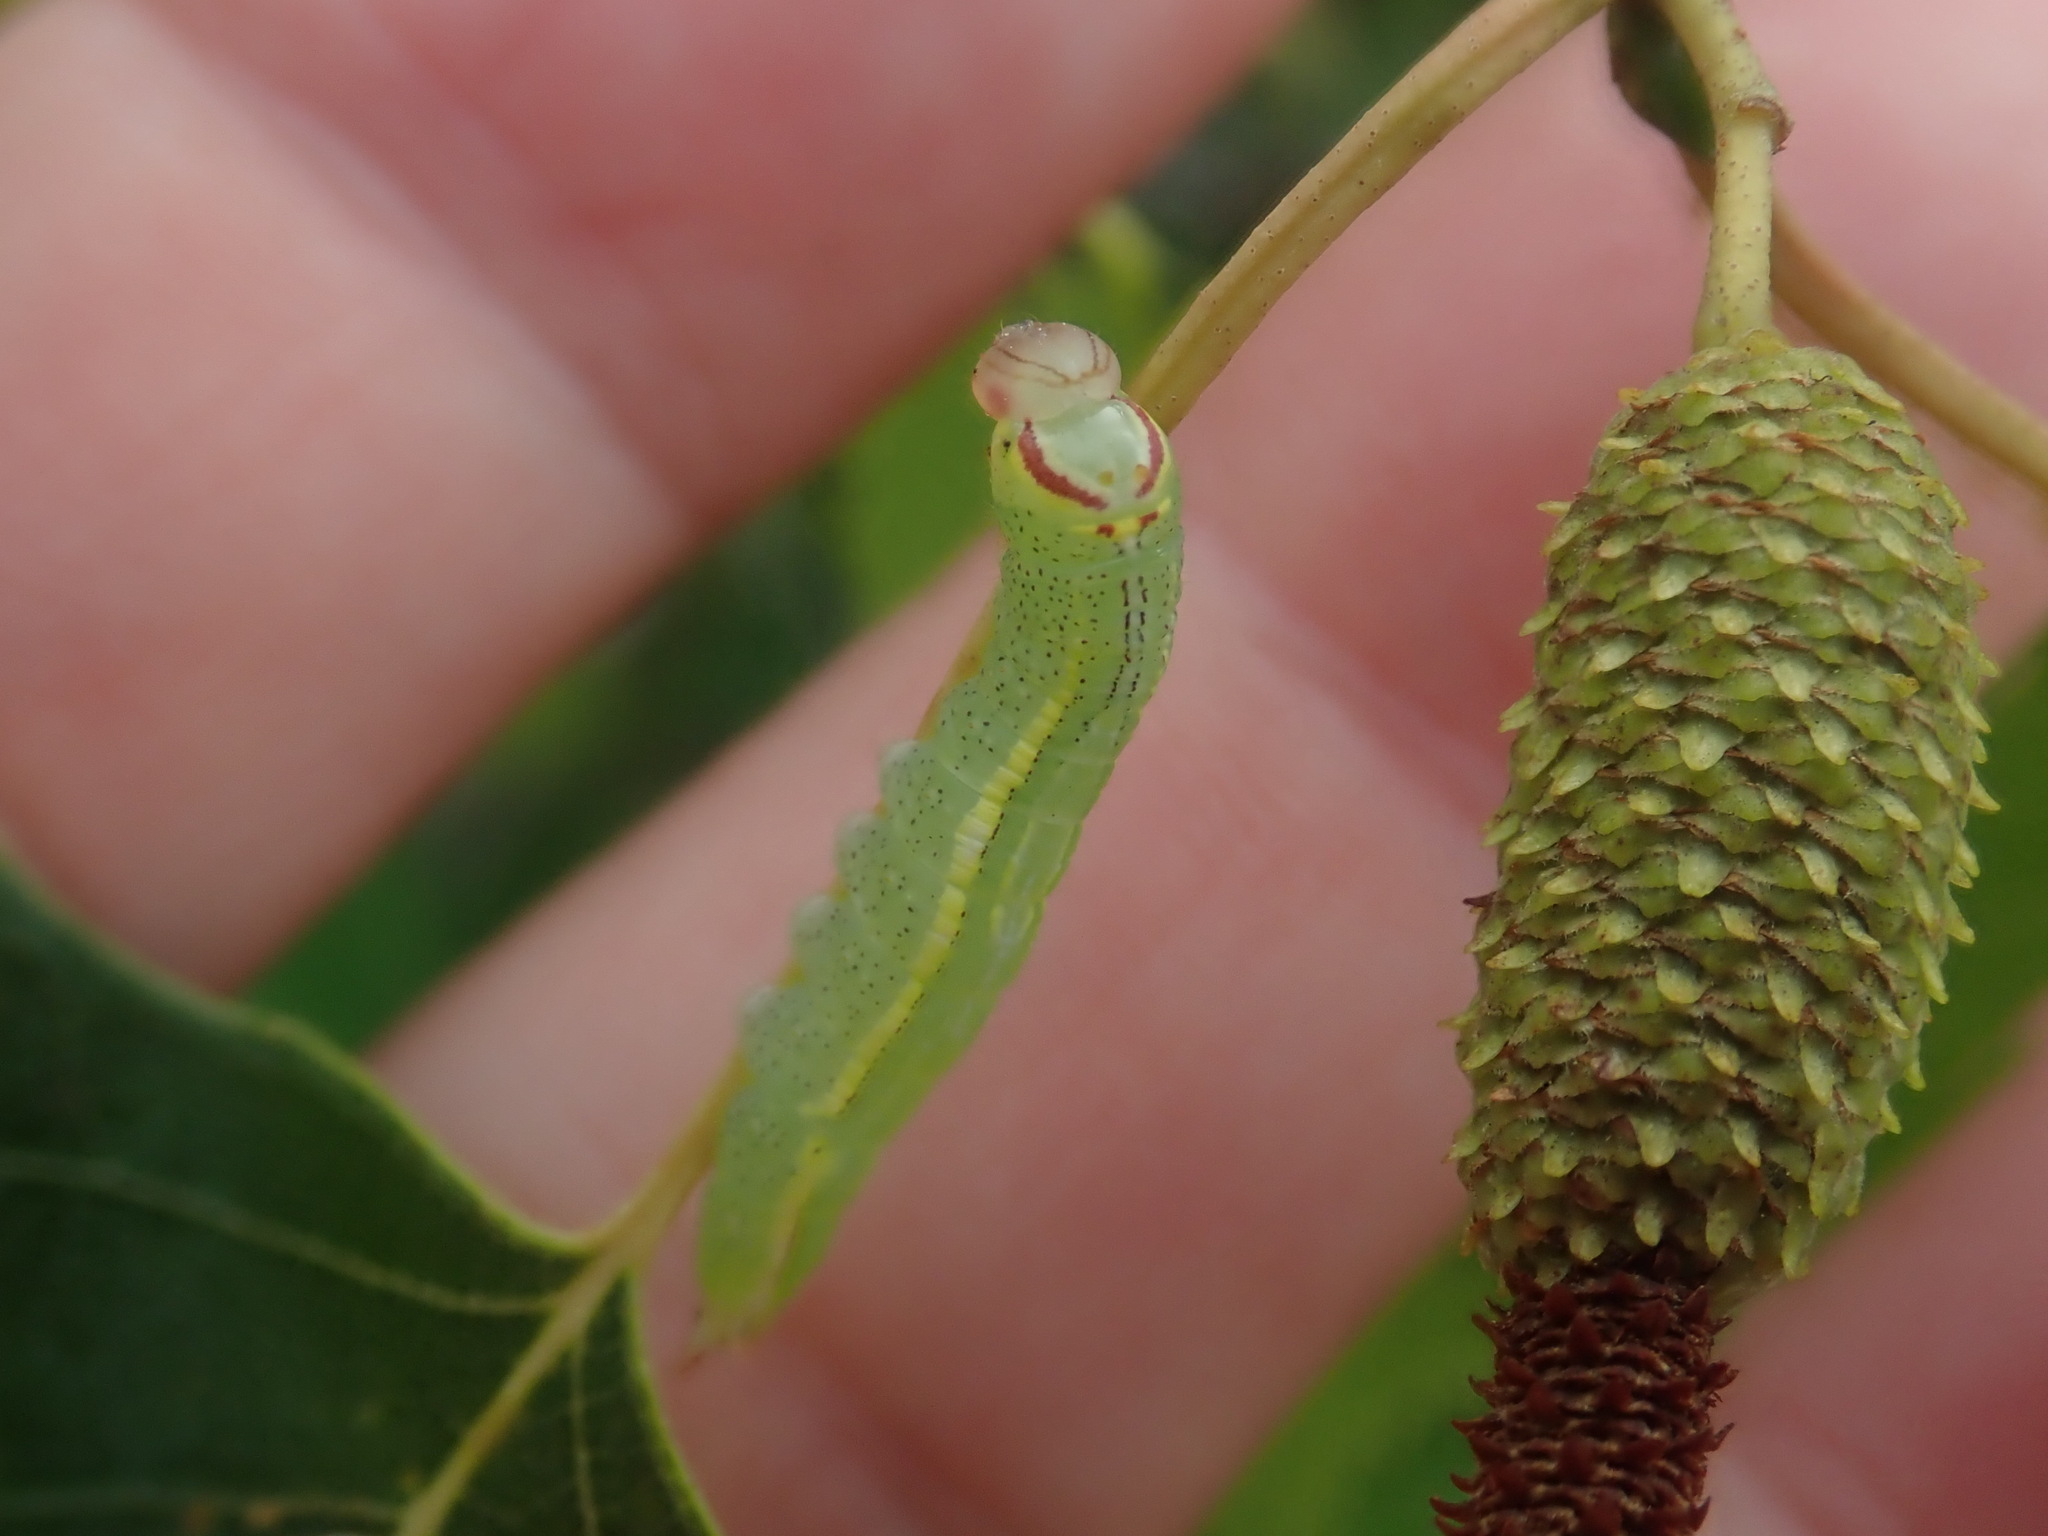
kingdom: Animalia
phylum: Arthropoda
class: Insecta
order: Lepidoptera
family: Notodontidae
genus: Disphragis
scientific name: Disphragis Cecrita guttivitta
